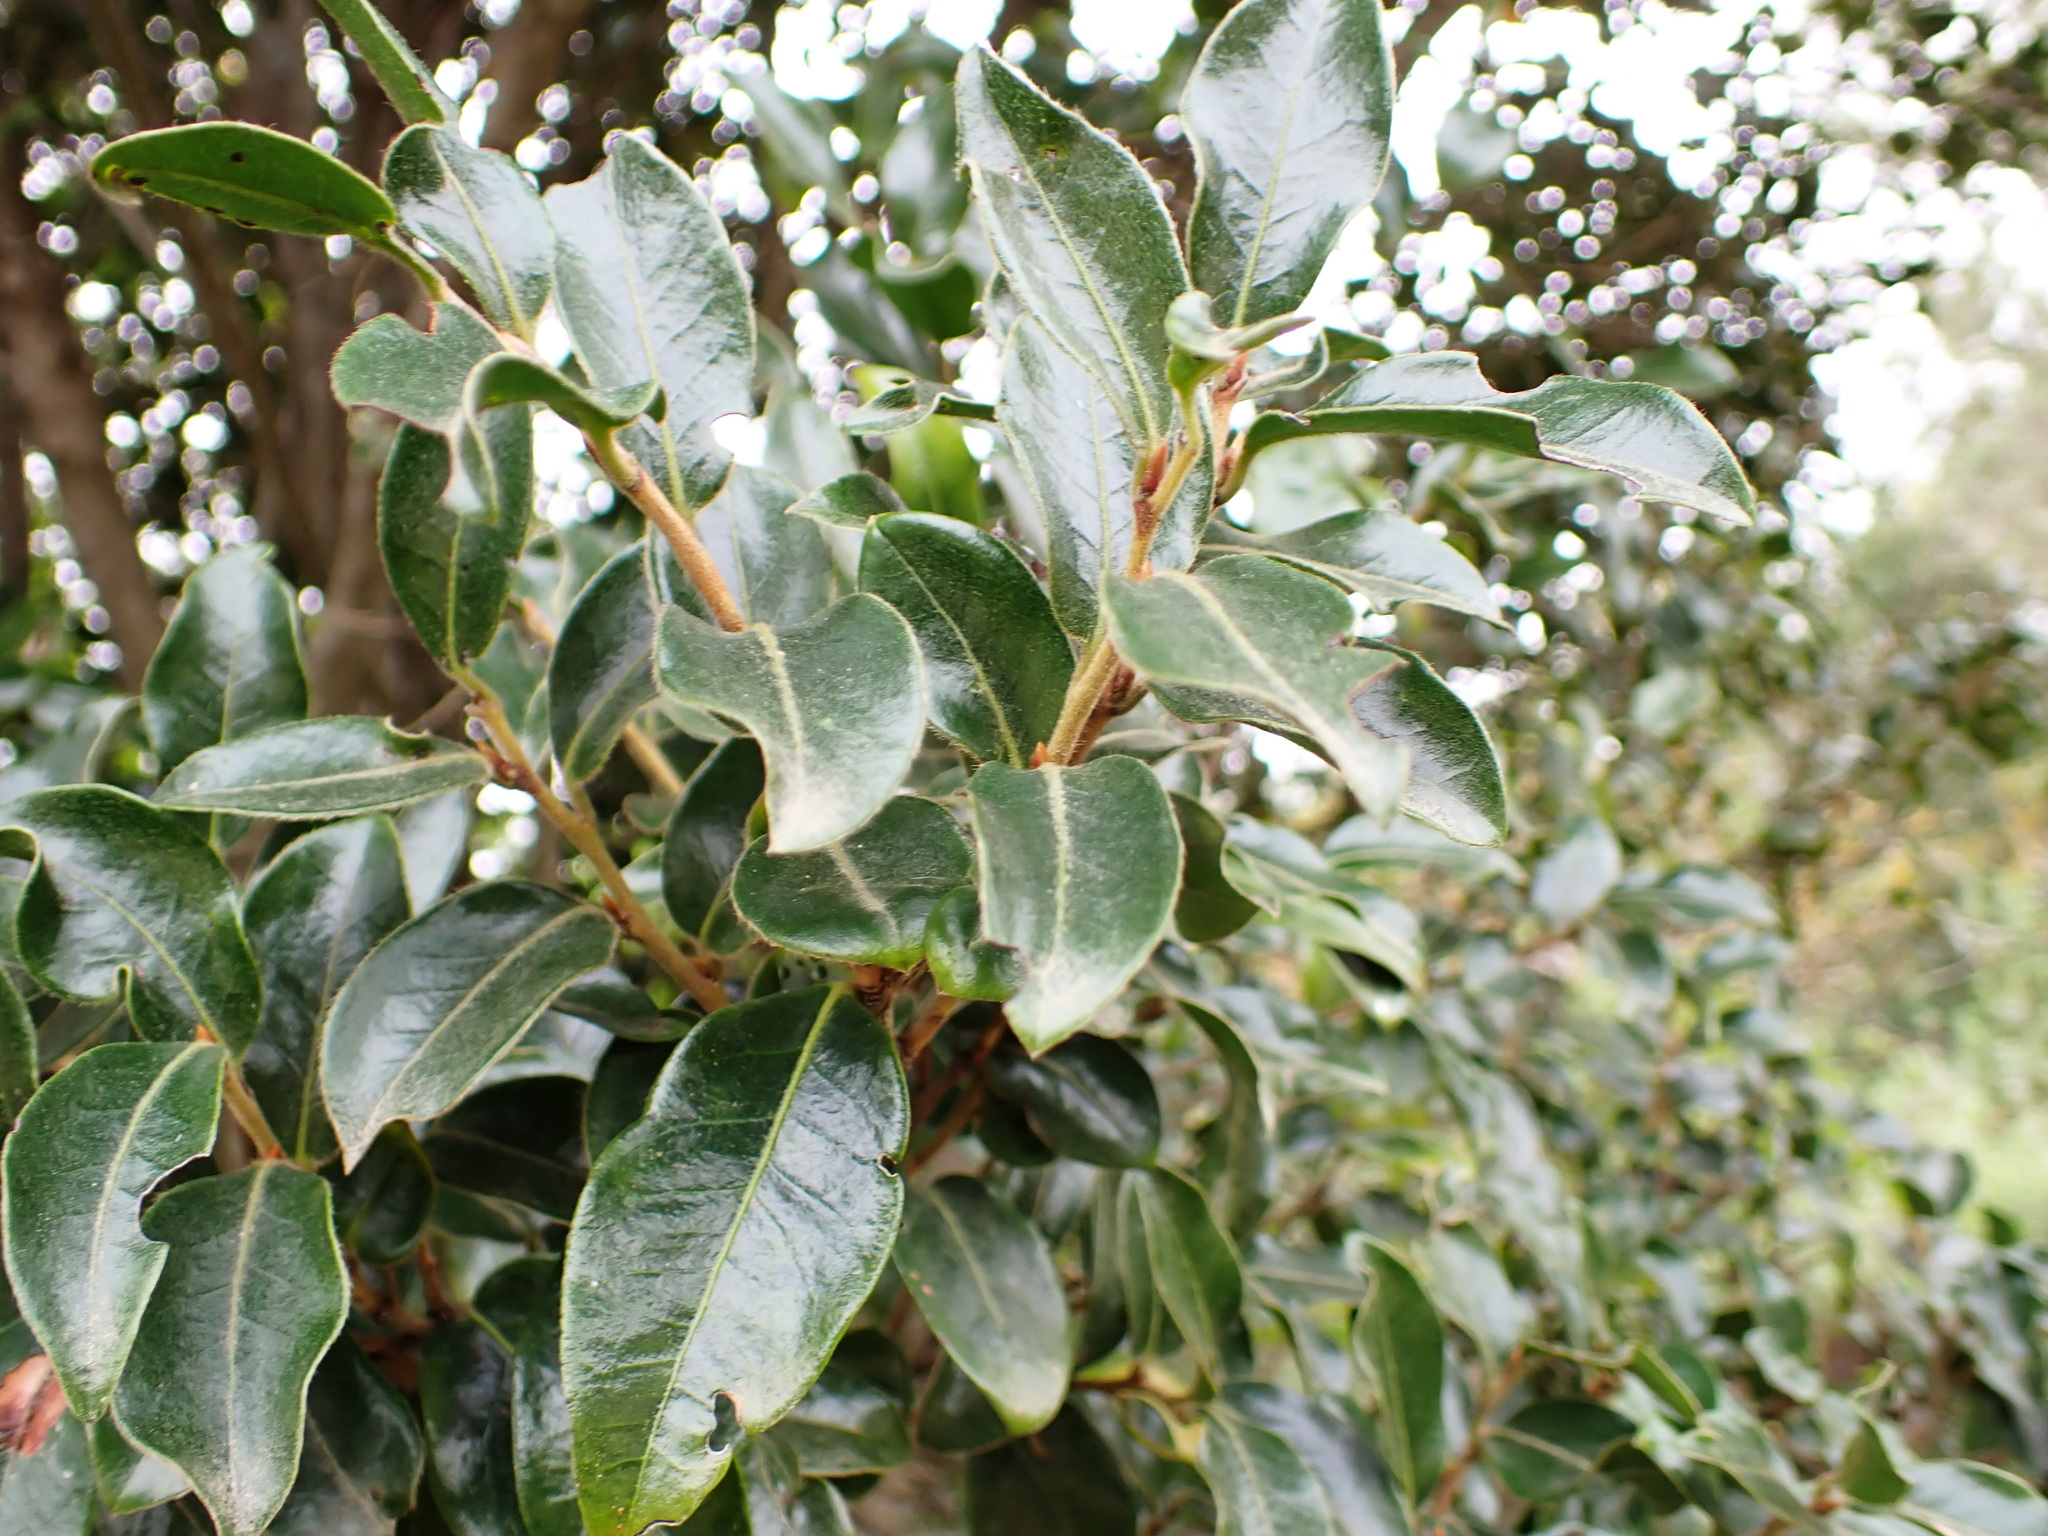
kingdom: Plantae
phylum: Tracheophyta
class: Magnoliopsida
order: Ericales
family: Ebenaceae
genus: Diospyros
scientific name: Diospyros whyteana
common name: Bladder-nut
